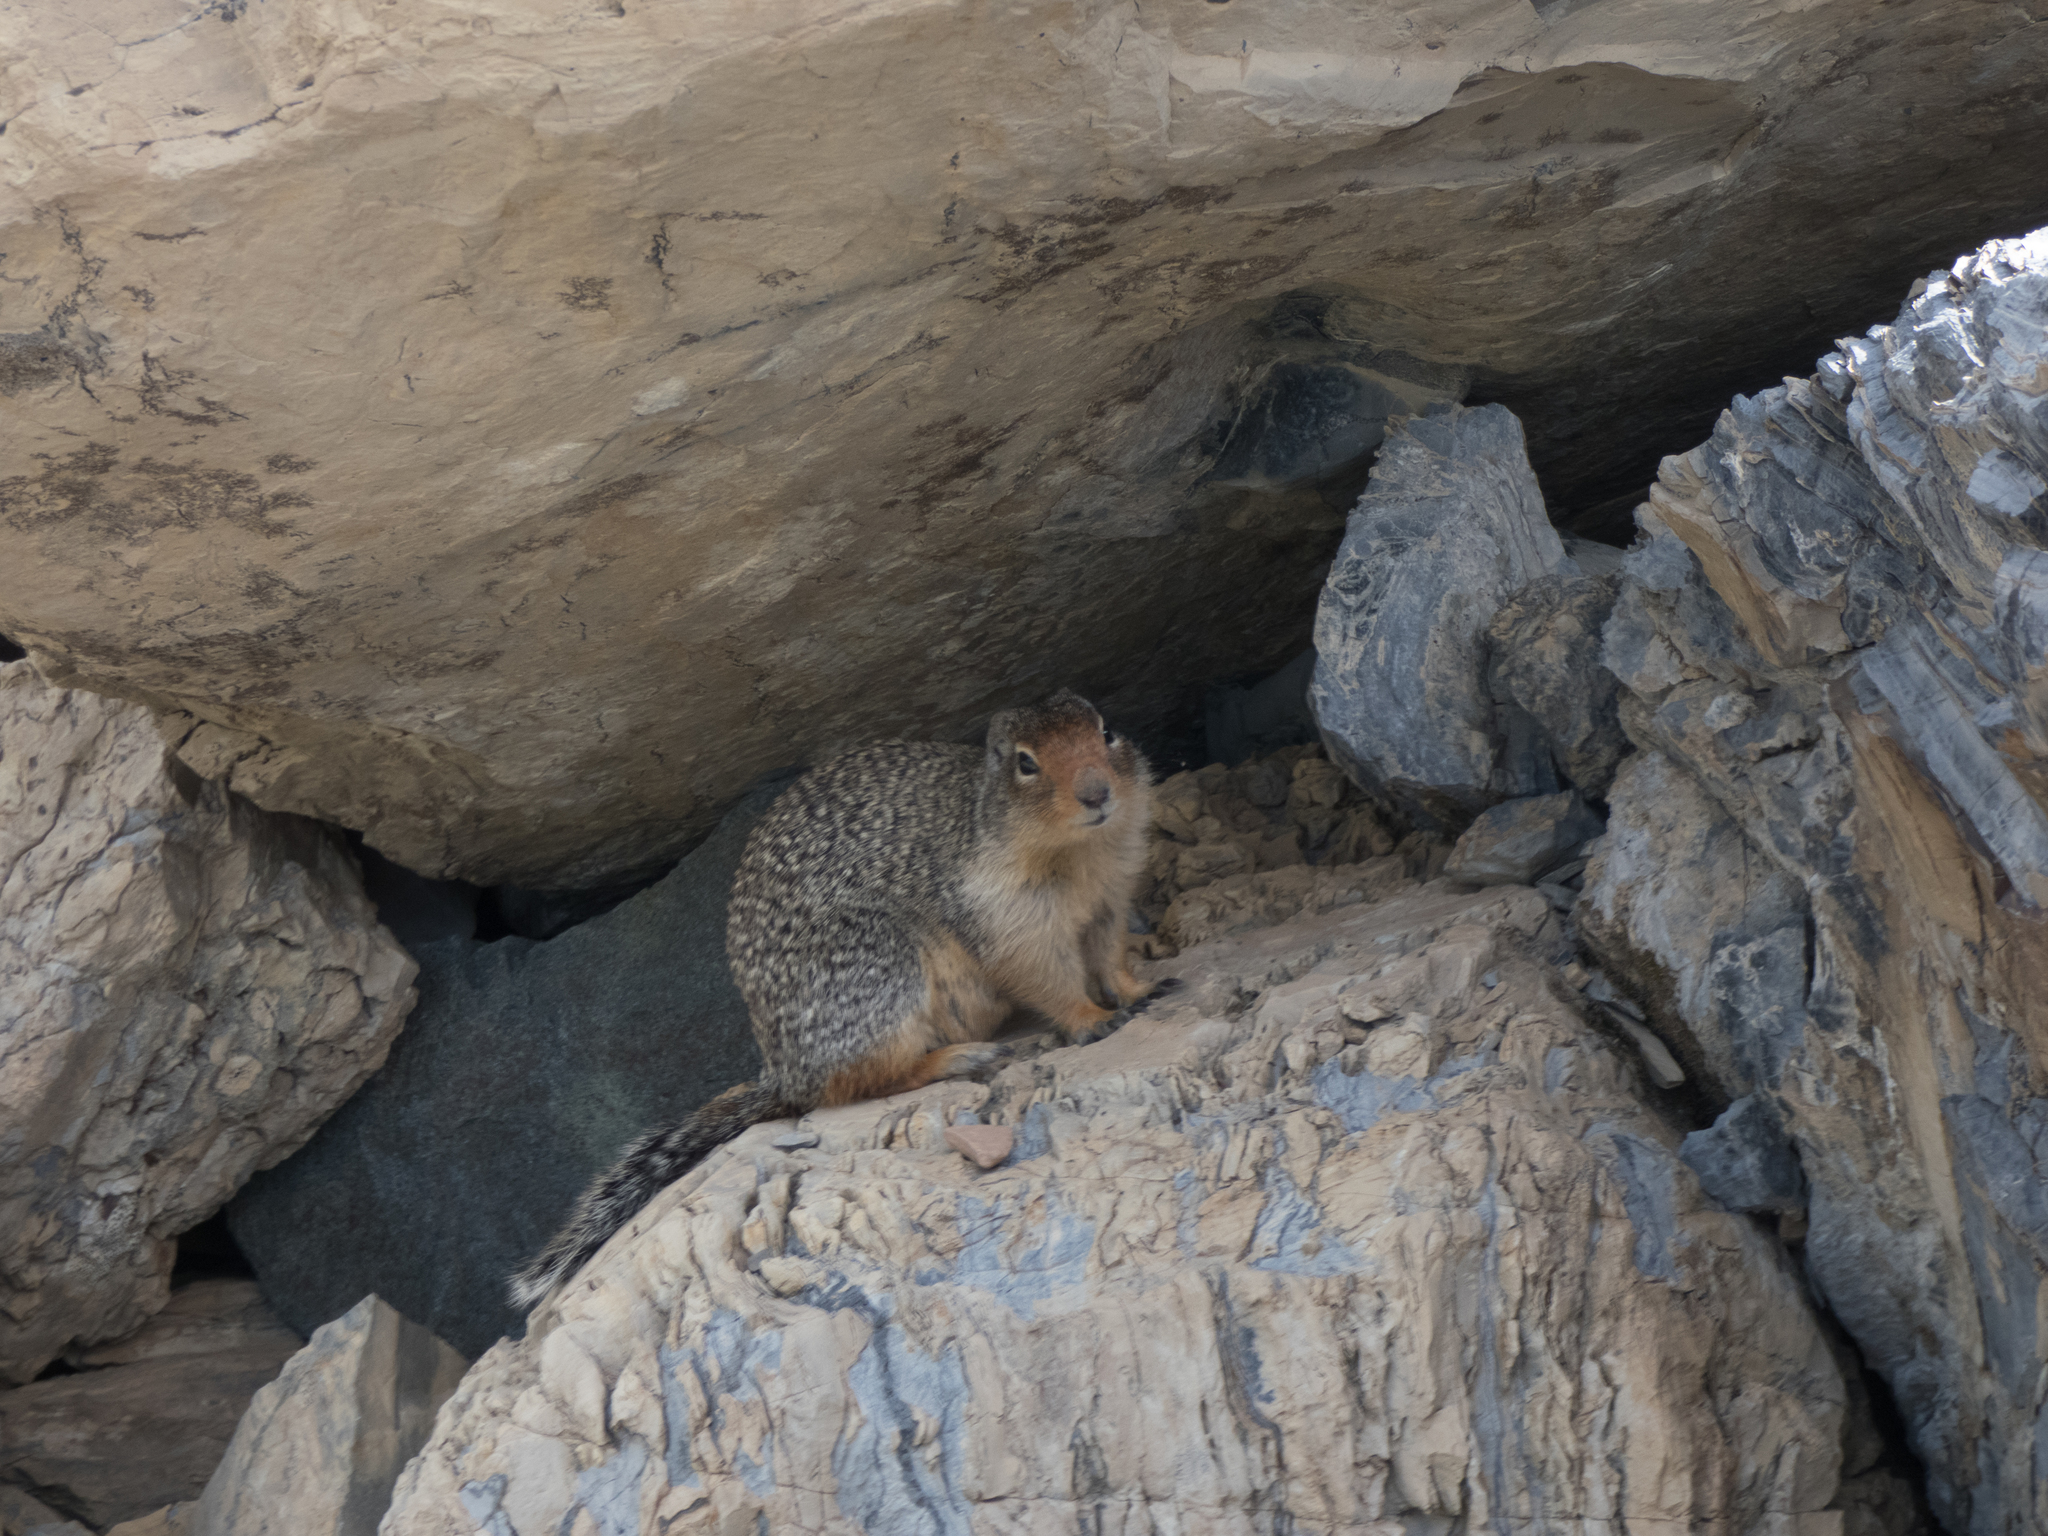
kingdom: Animalia
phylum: Chordata
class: Mammalia
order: Rodentia
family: Sciuridae
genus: Urocitellus
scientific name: Urocitellus columbianus
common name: Columbian ground squirrel
